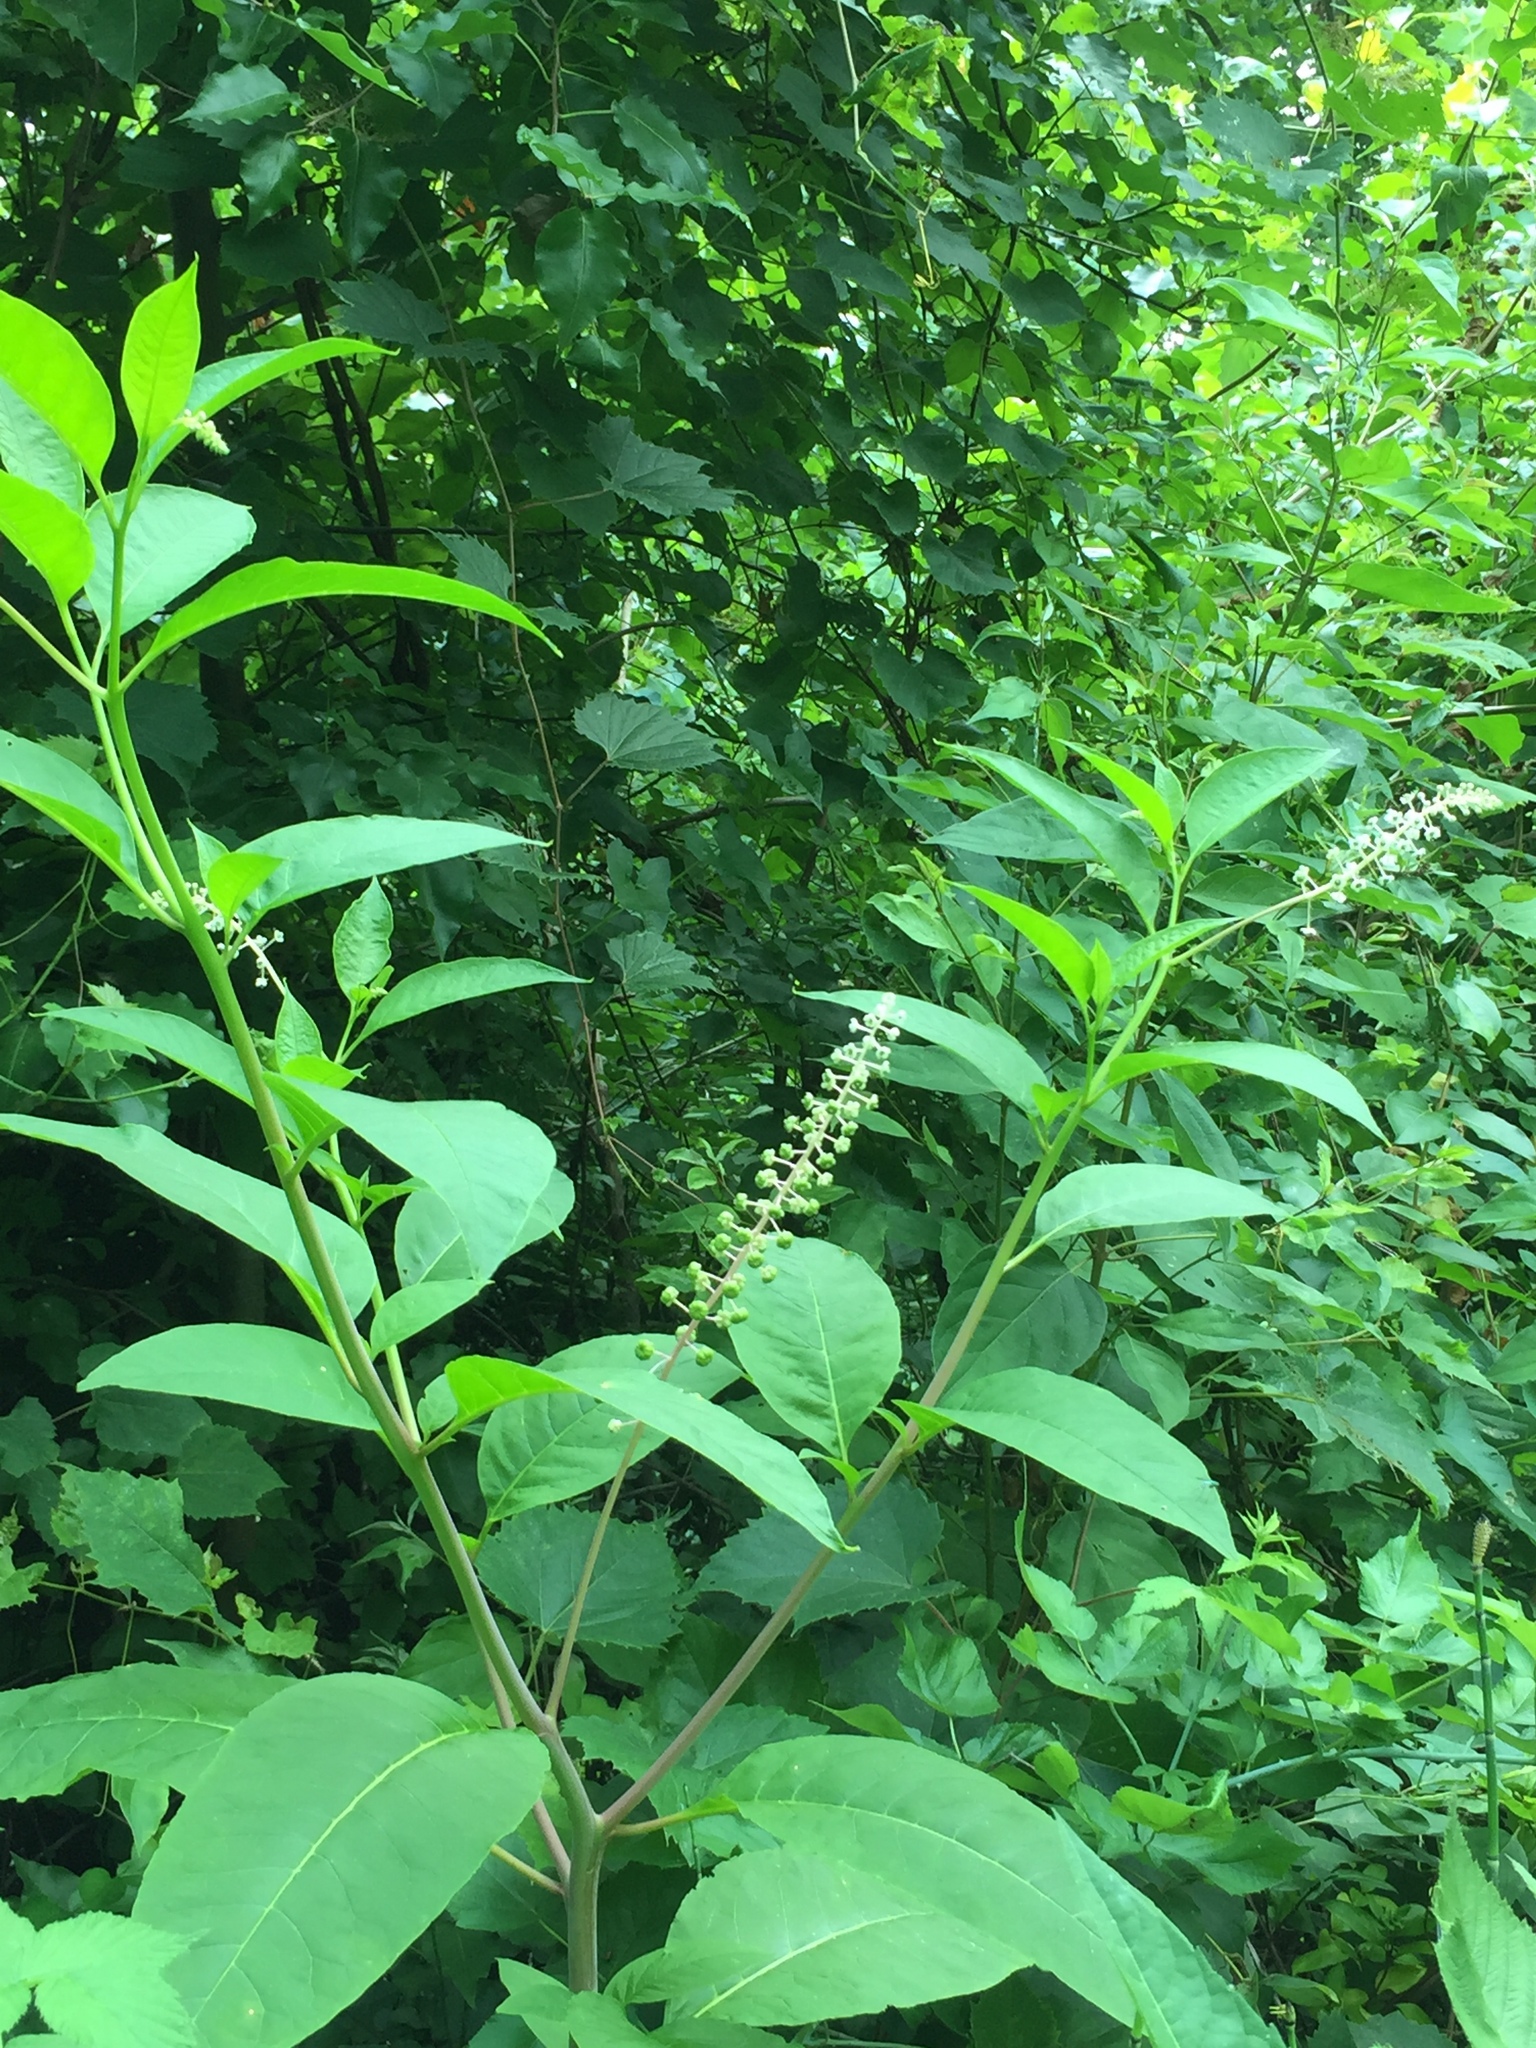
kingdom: Plantae
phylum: Tracheophyta
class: Magnoliopsida
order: Caryophyllales
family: Phytolaccaceae
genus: Phytolacca
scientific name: Phytolacca americana
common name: American pokeweed
